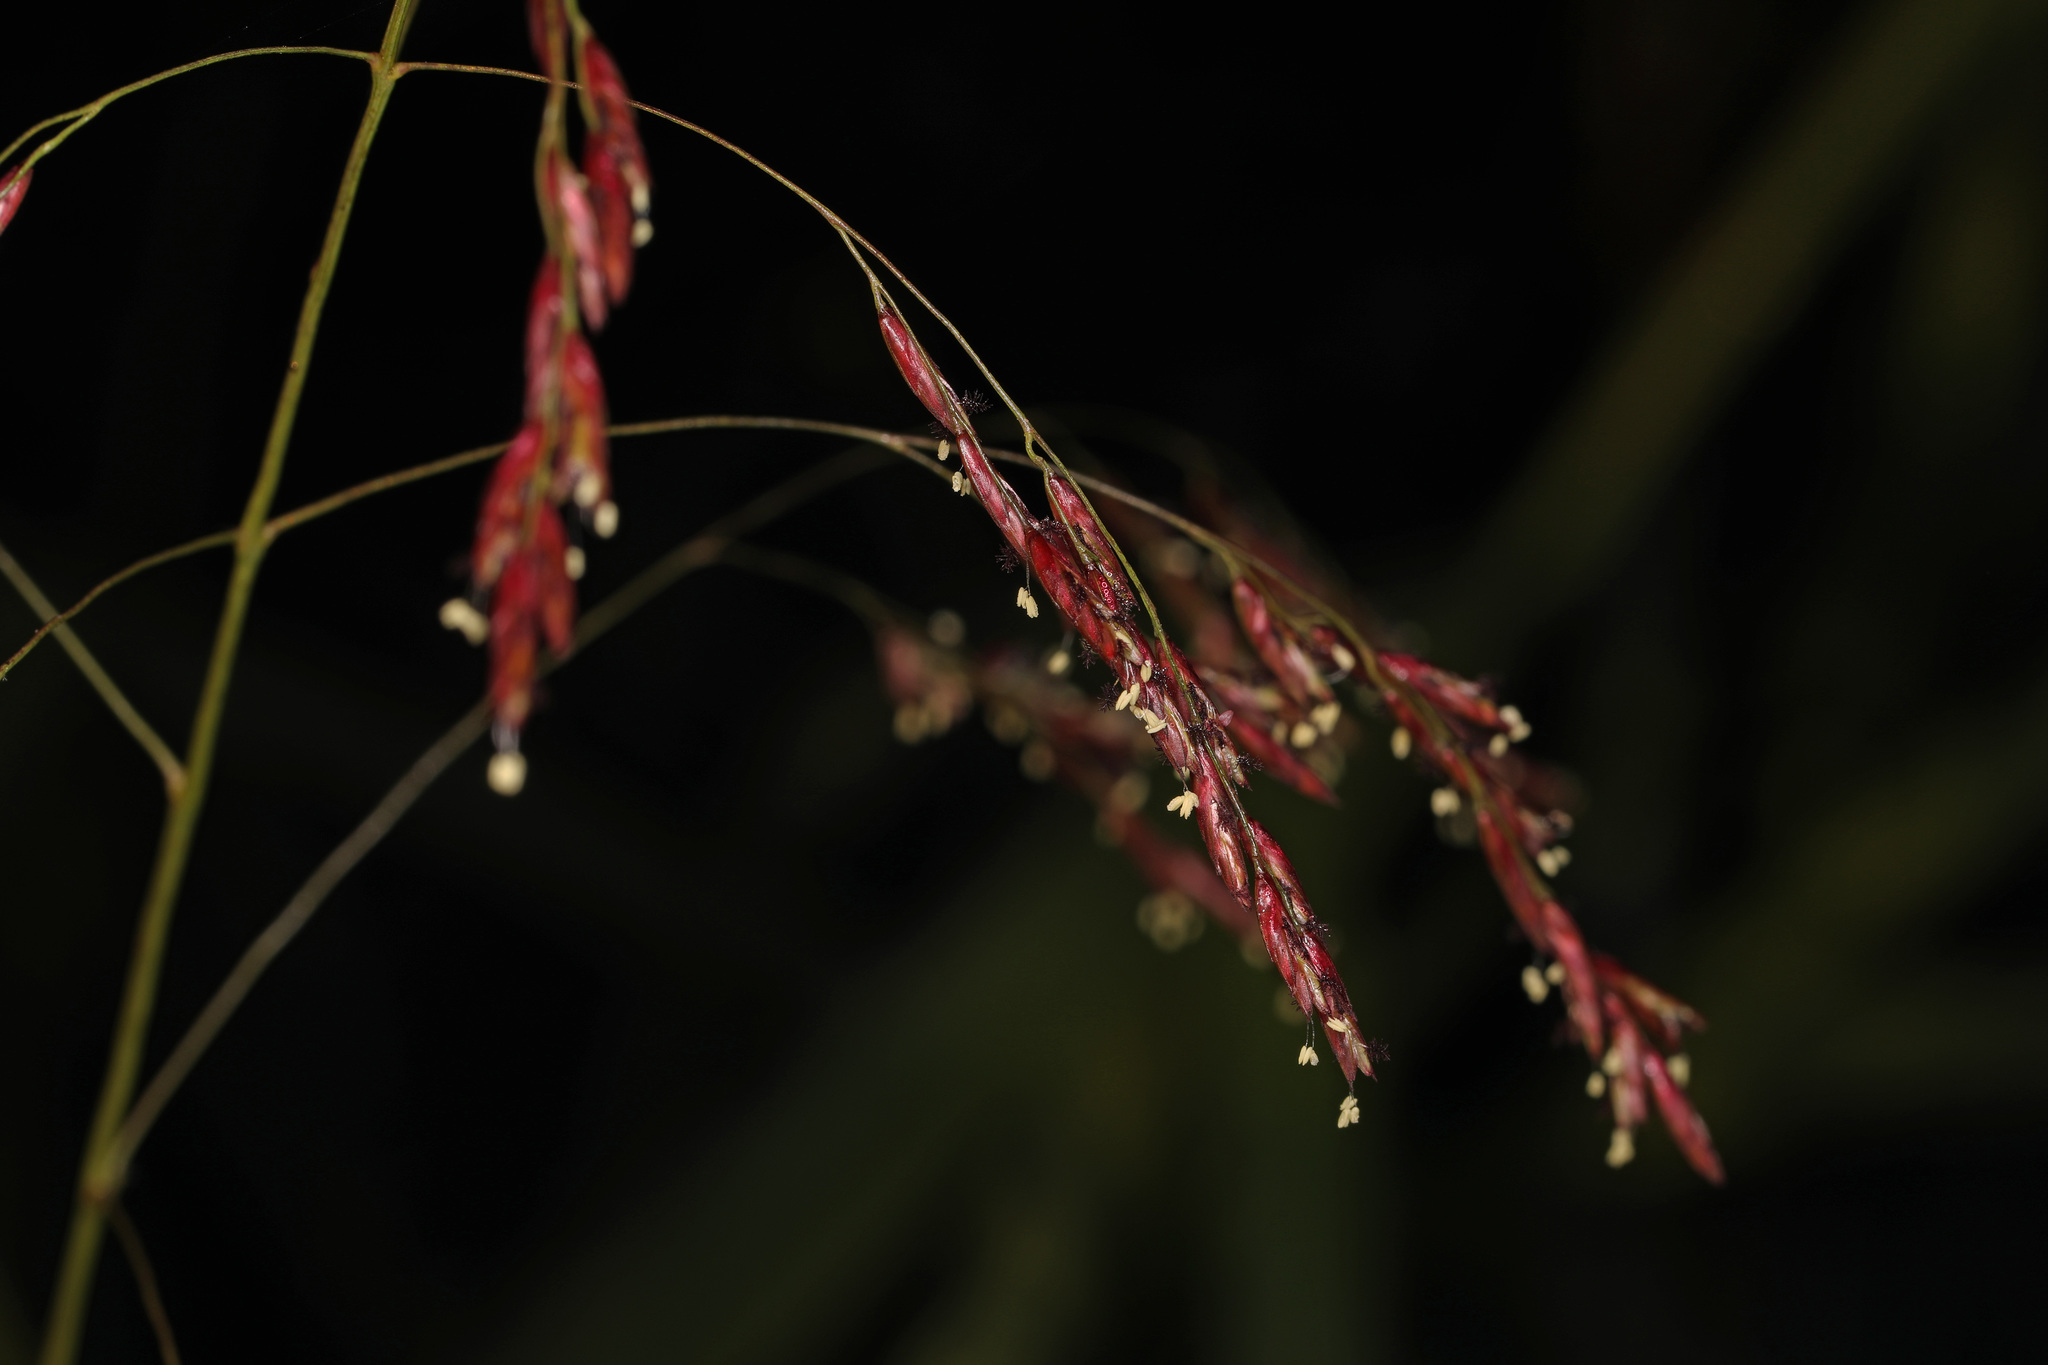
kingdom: Plantae
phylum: Tracheophyta
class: Liliopsida
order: Poales
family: Poaceae
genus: Tridens
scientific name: Tridens flavus
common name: Purpletop
